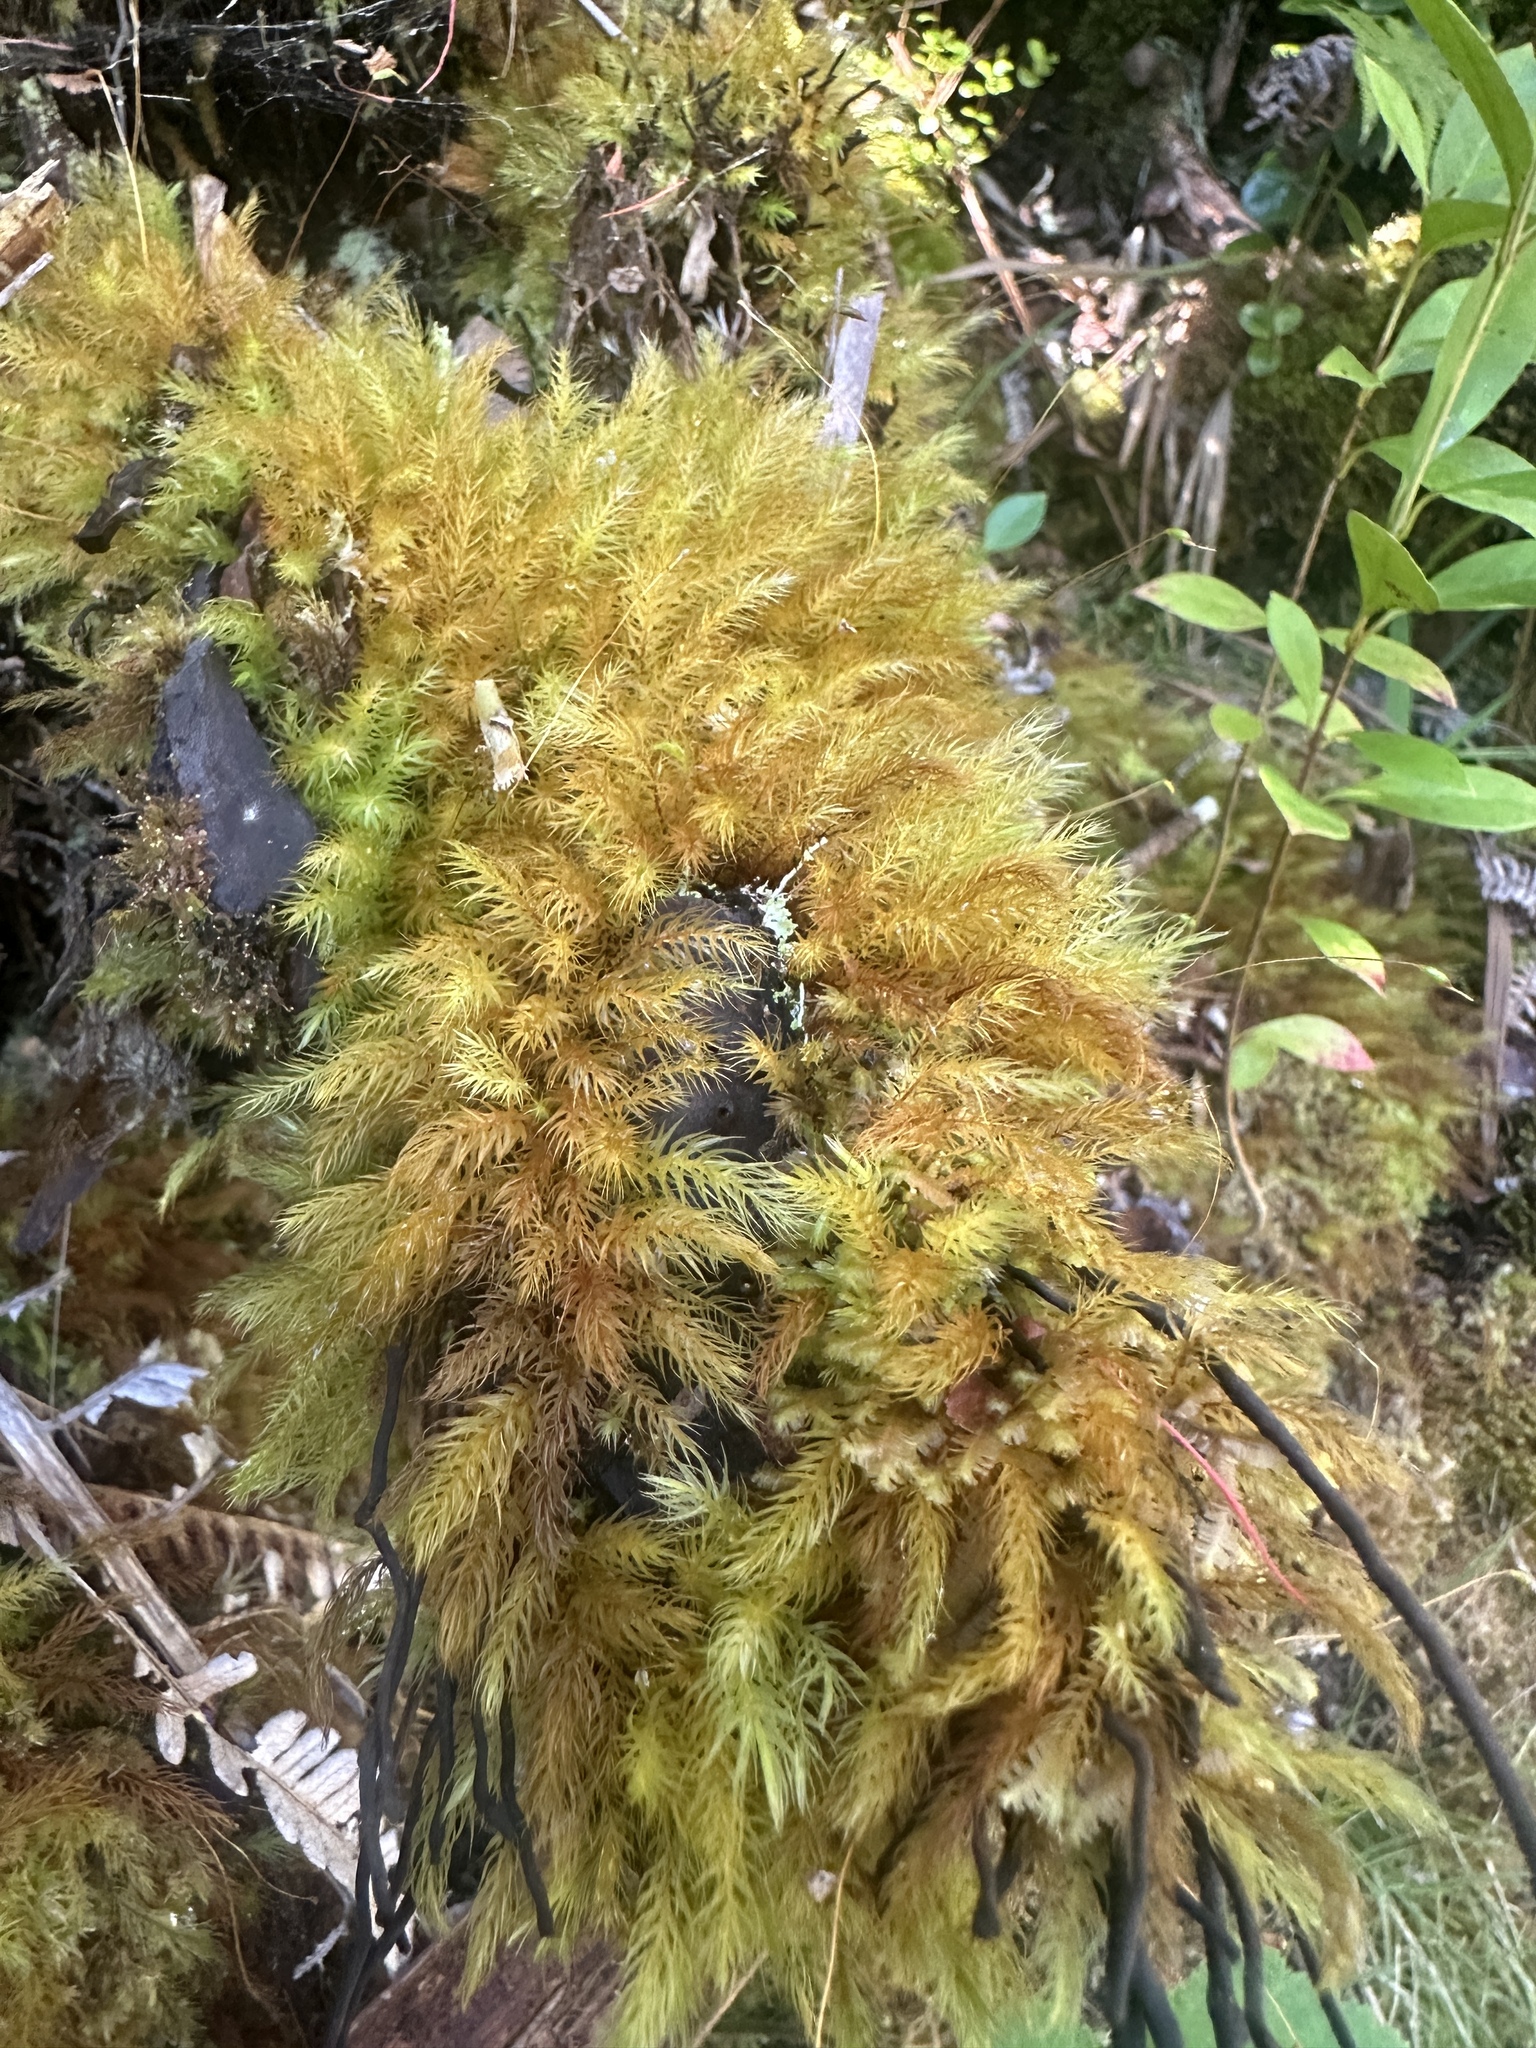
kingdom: Plantae
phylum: Bryophyta
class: Bryopsida
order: Rhizogoniales
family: Calomniaceae
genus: Pyrrhobryum
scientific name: Pyrrhobryum spiniforme
